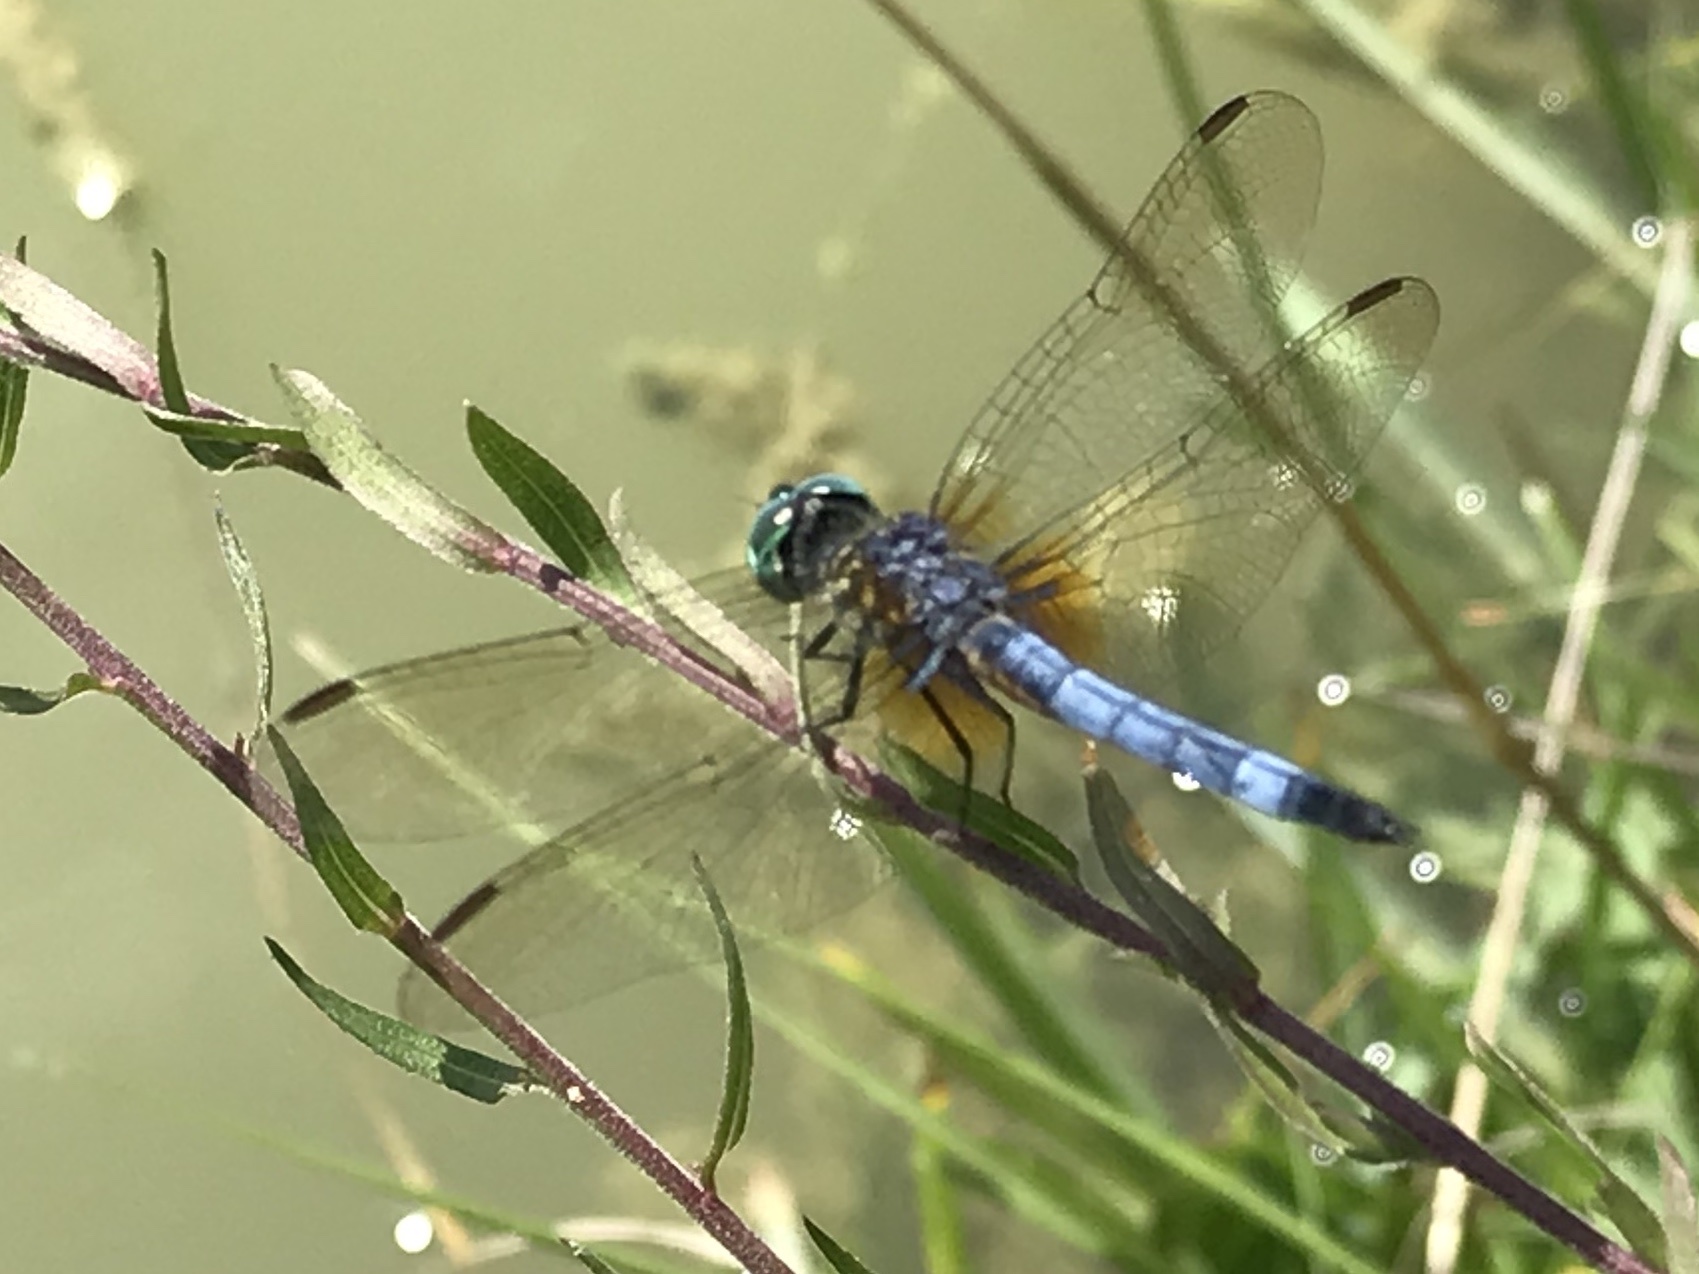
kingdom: Animalia
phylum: Arthropoda
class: Insecta
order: Odonata
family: Libellulidae
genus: Pachydiplax
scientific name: Pachydiplax longipennis
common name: Blue dasher
